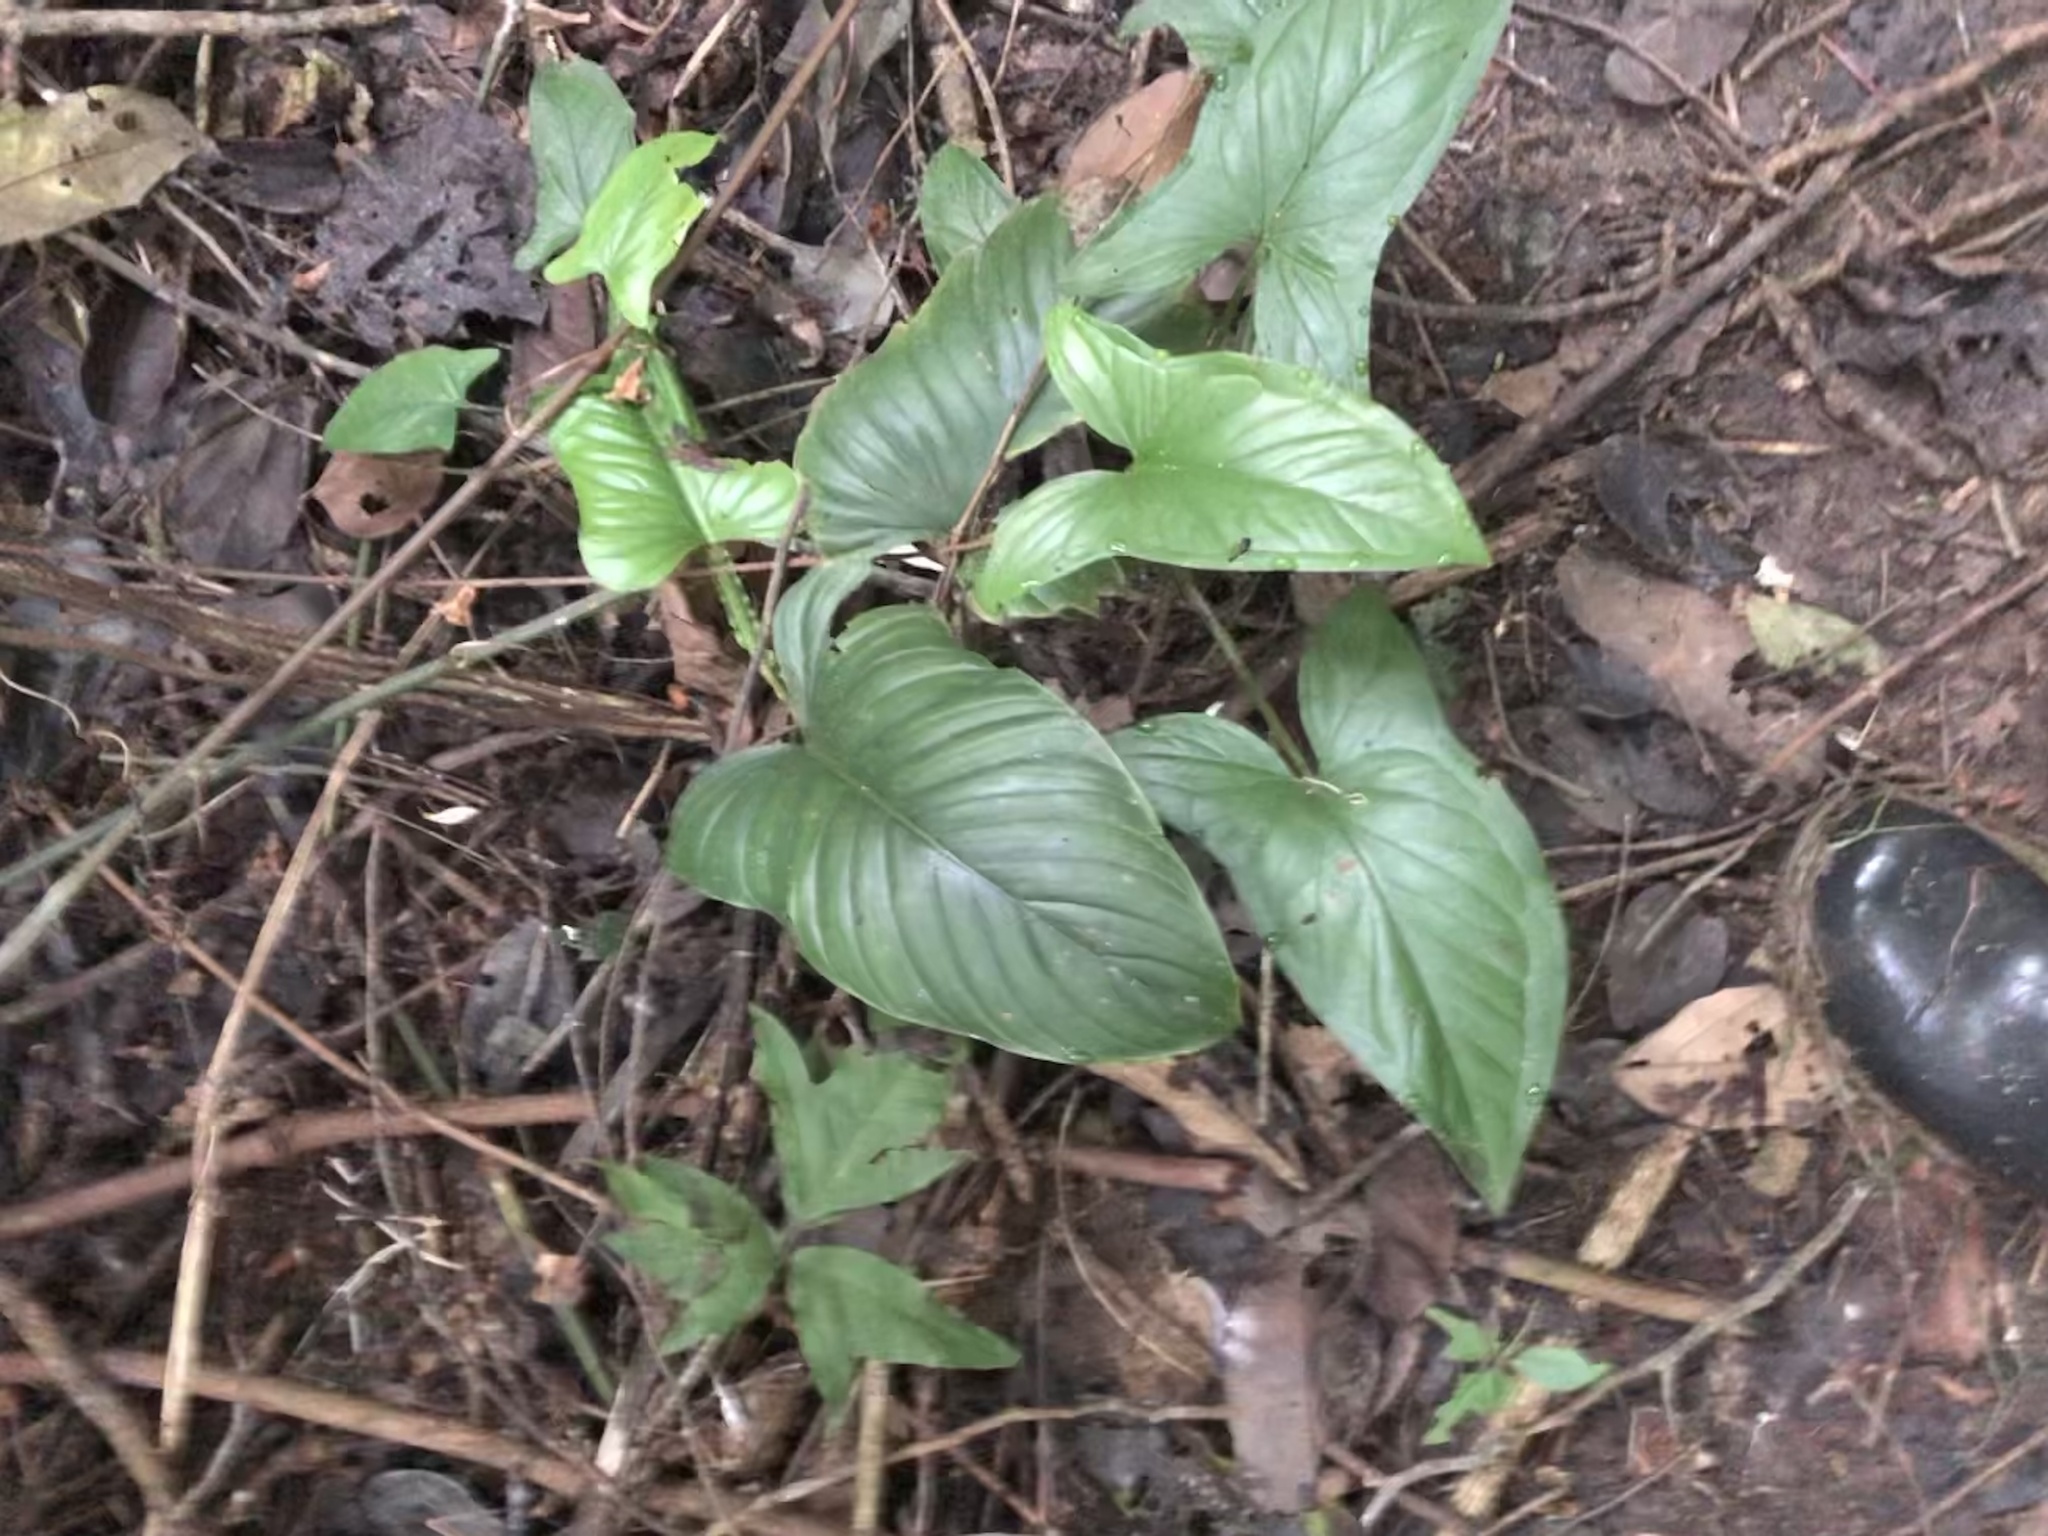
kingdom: Plantae
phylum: Tracheophyta
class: Liliopsida
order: Alismatales
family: Araceae
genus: Philodendron
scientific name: Philodendron ernestii
